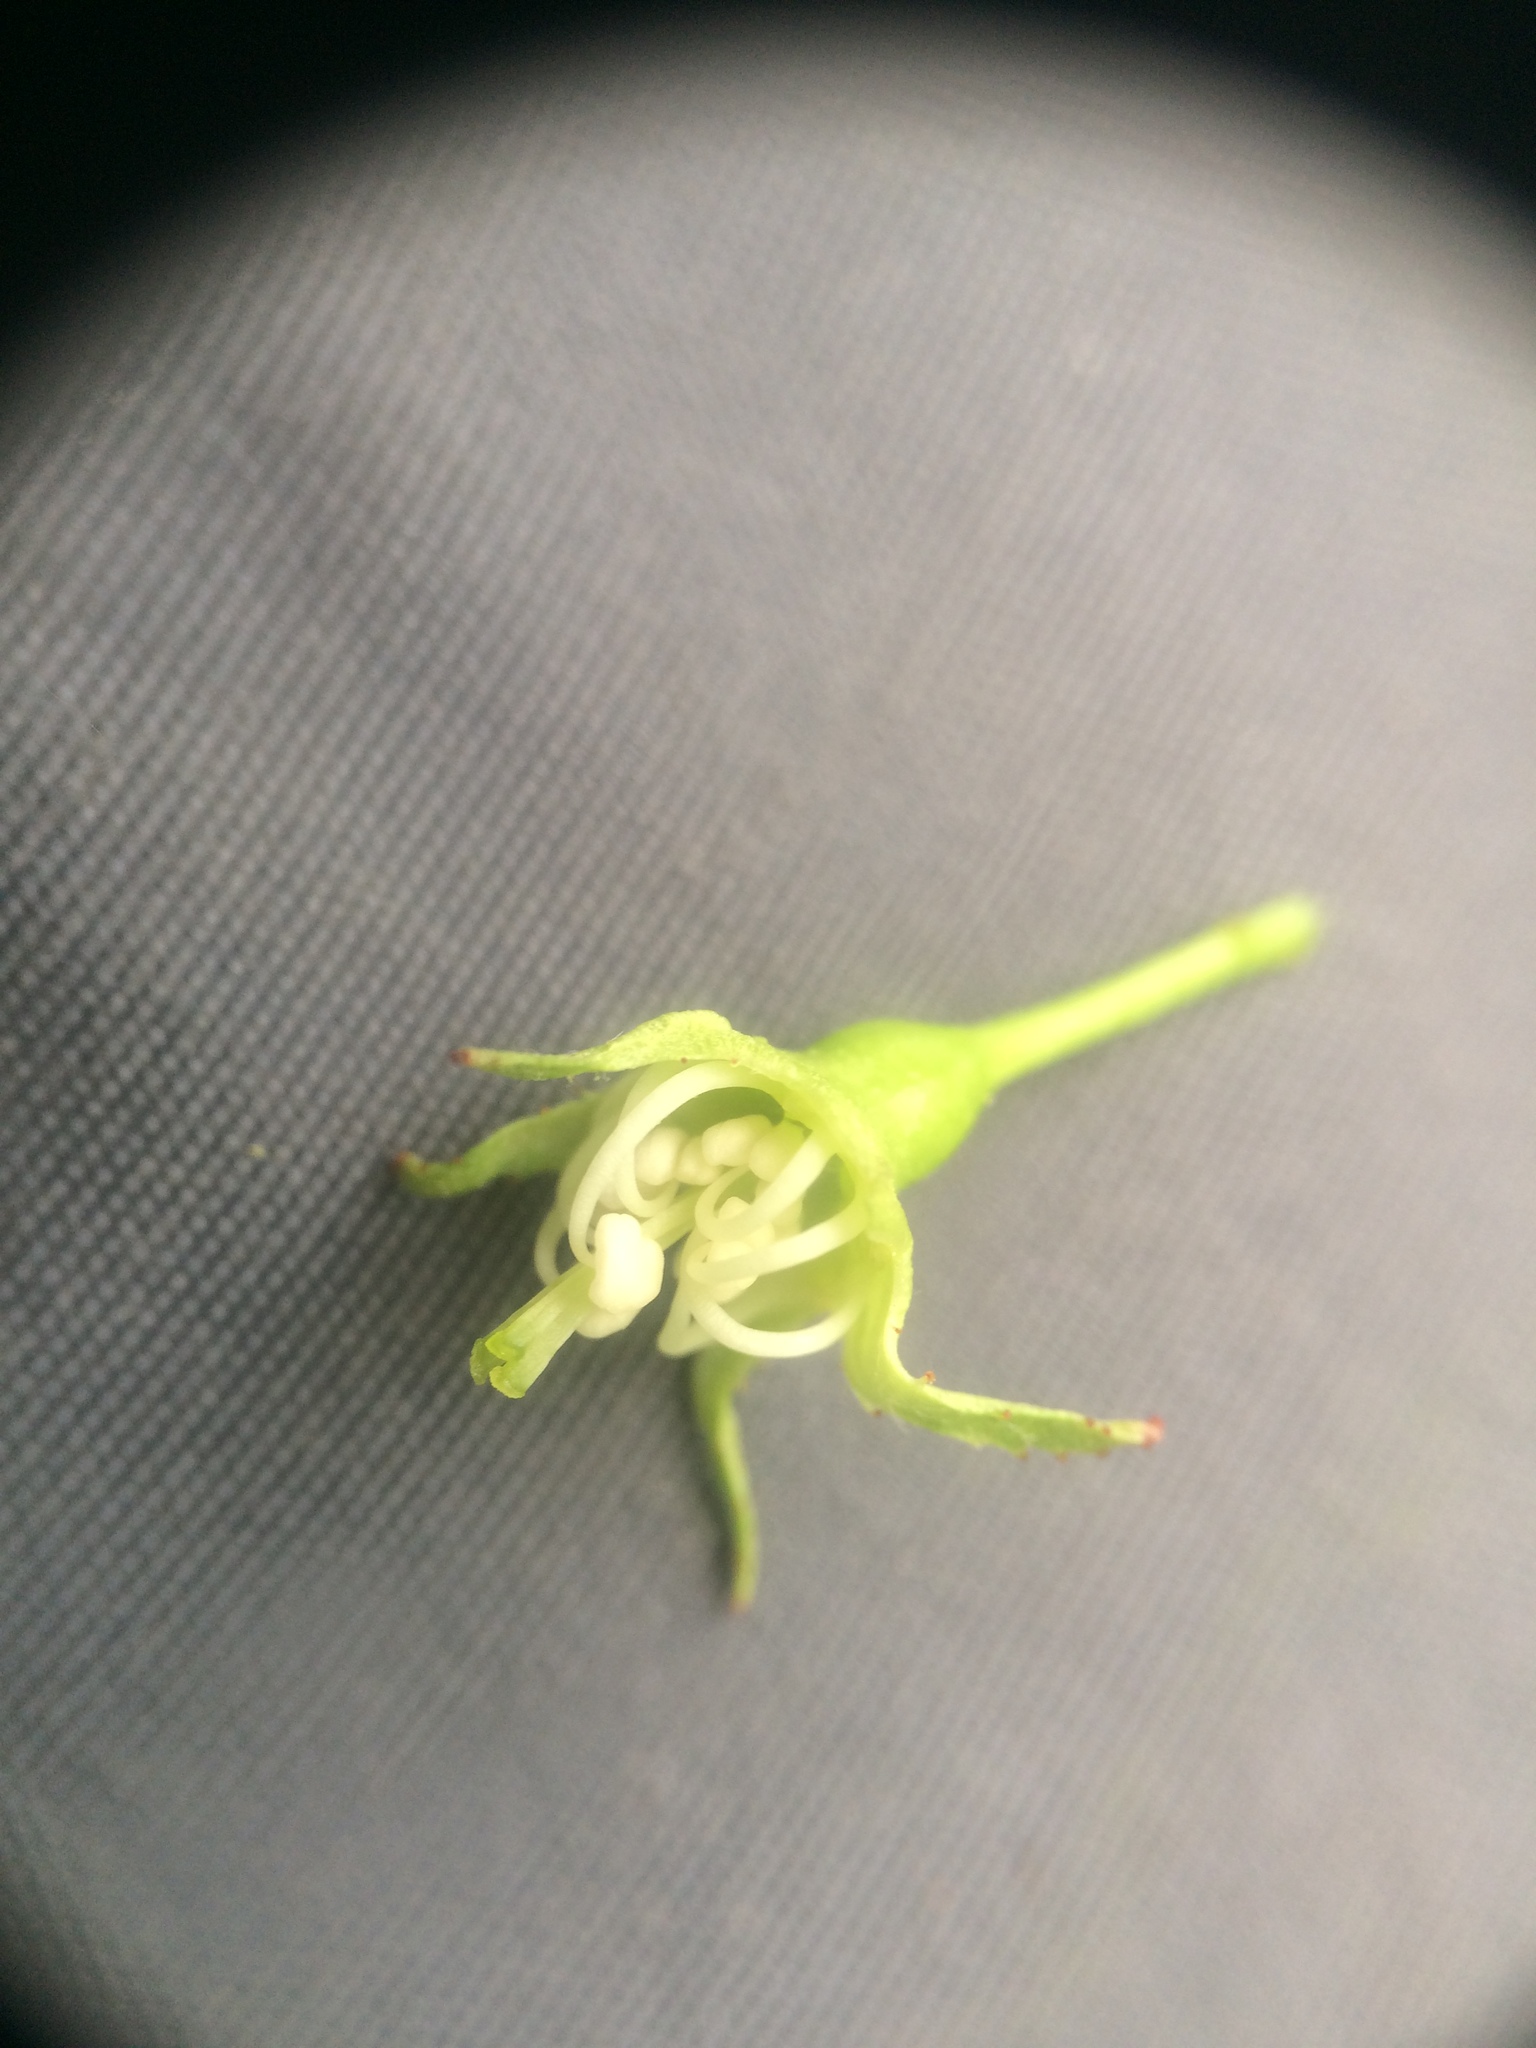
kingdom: Plantae
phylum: Tracheophyta
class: Magnoliopsida
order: Rosales
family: Rosaceae
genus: Crataegus
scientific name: Crataegus scabrida
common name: Rough hawthorn
